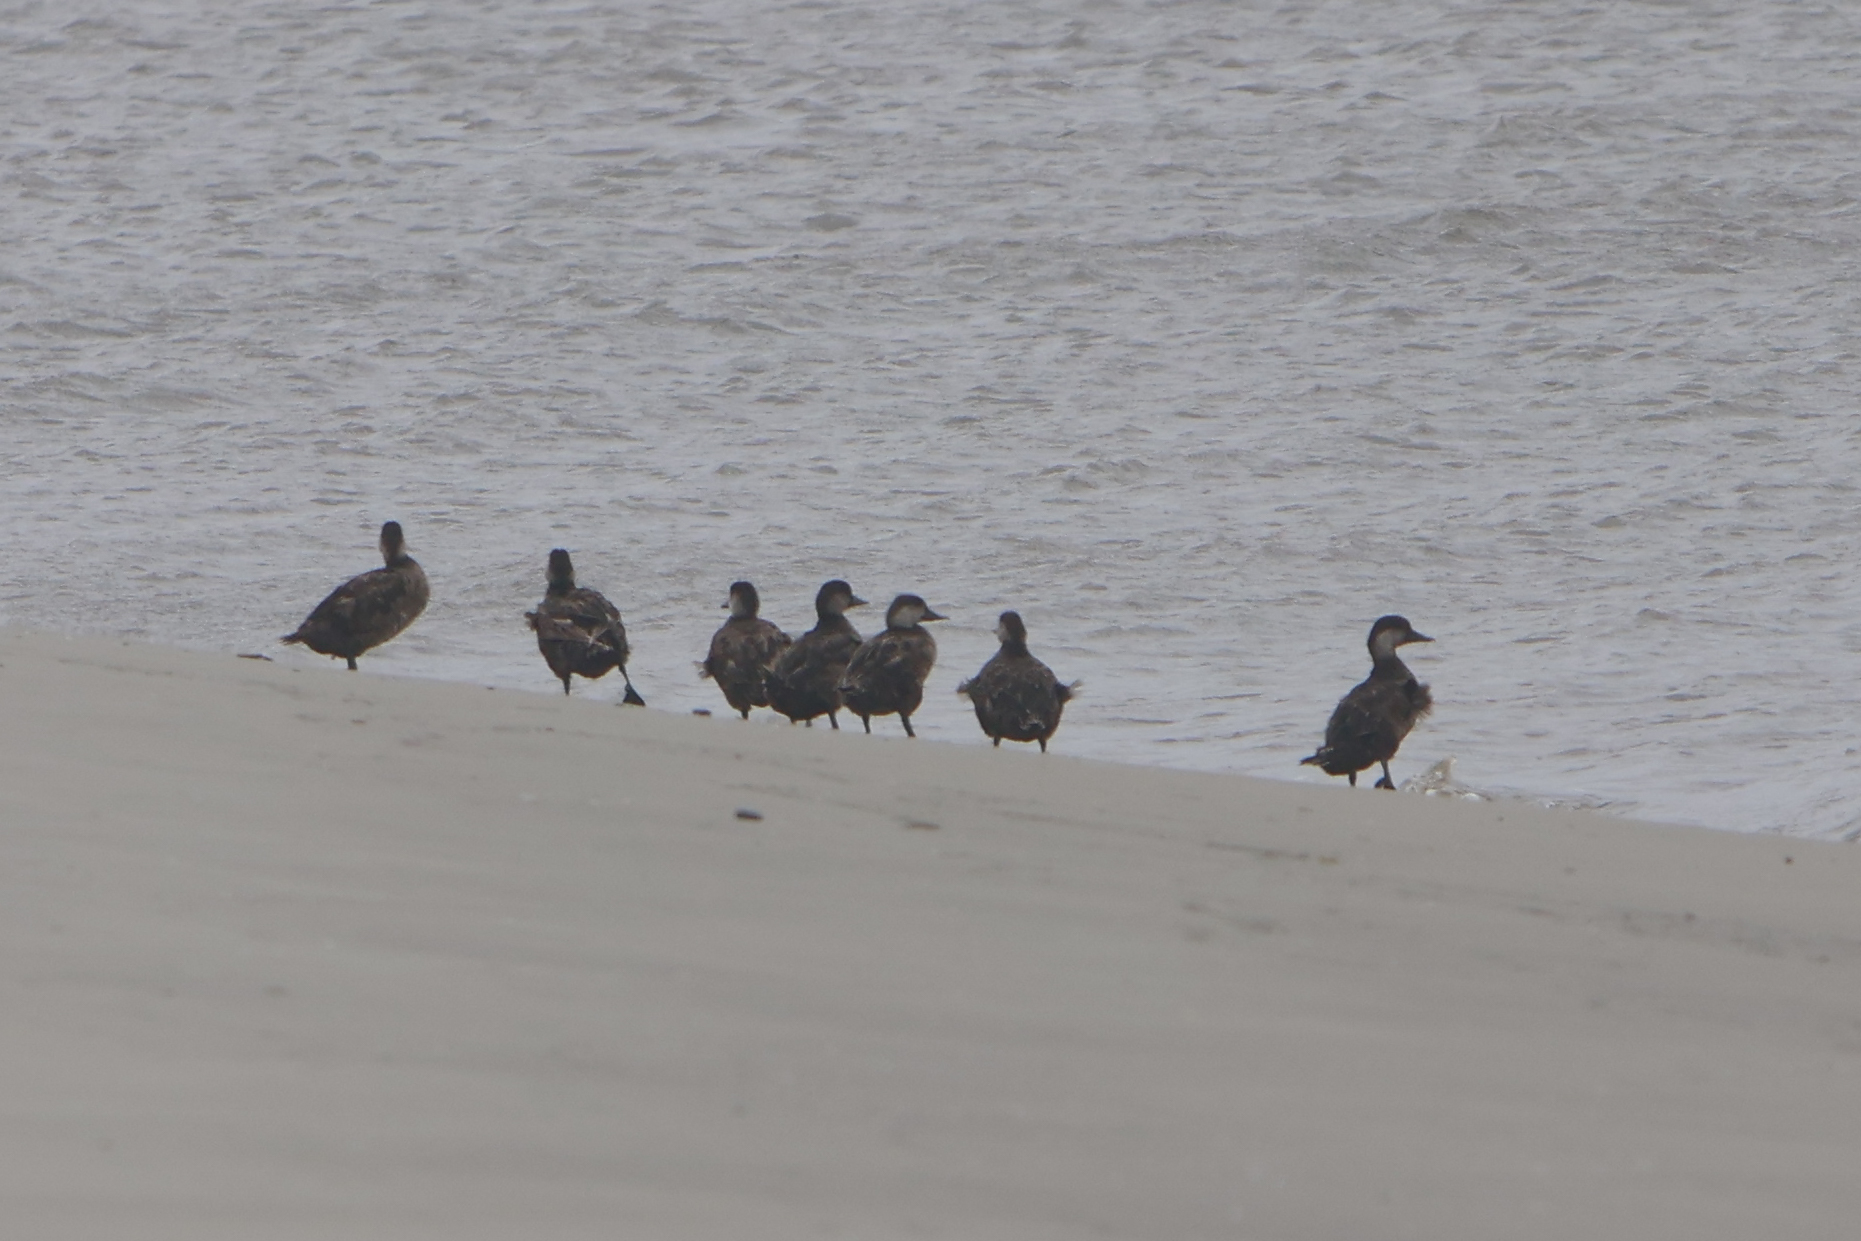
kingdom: Animalia
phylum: Chordata
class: Aves
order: Anseriformes
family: Anatidae
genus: Melanitta
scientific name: Melanitta americana
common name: Black scoter
